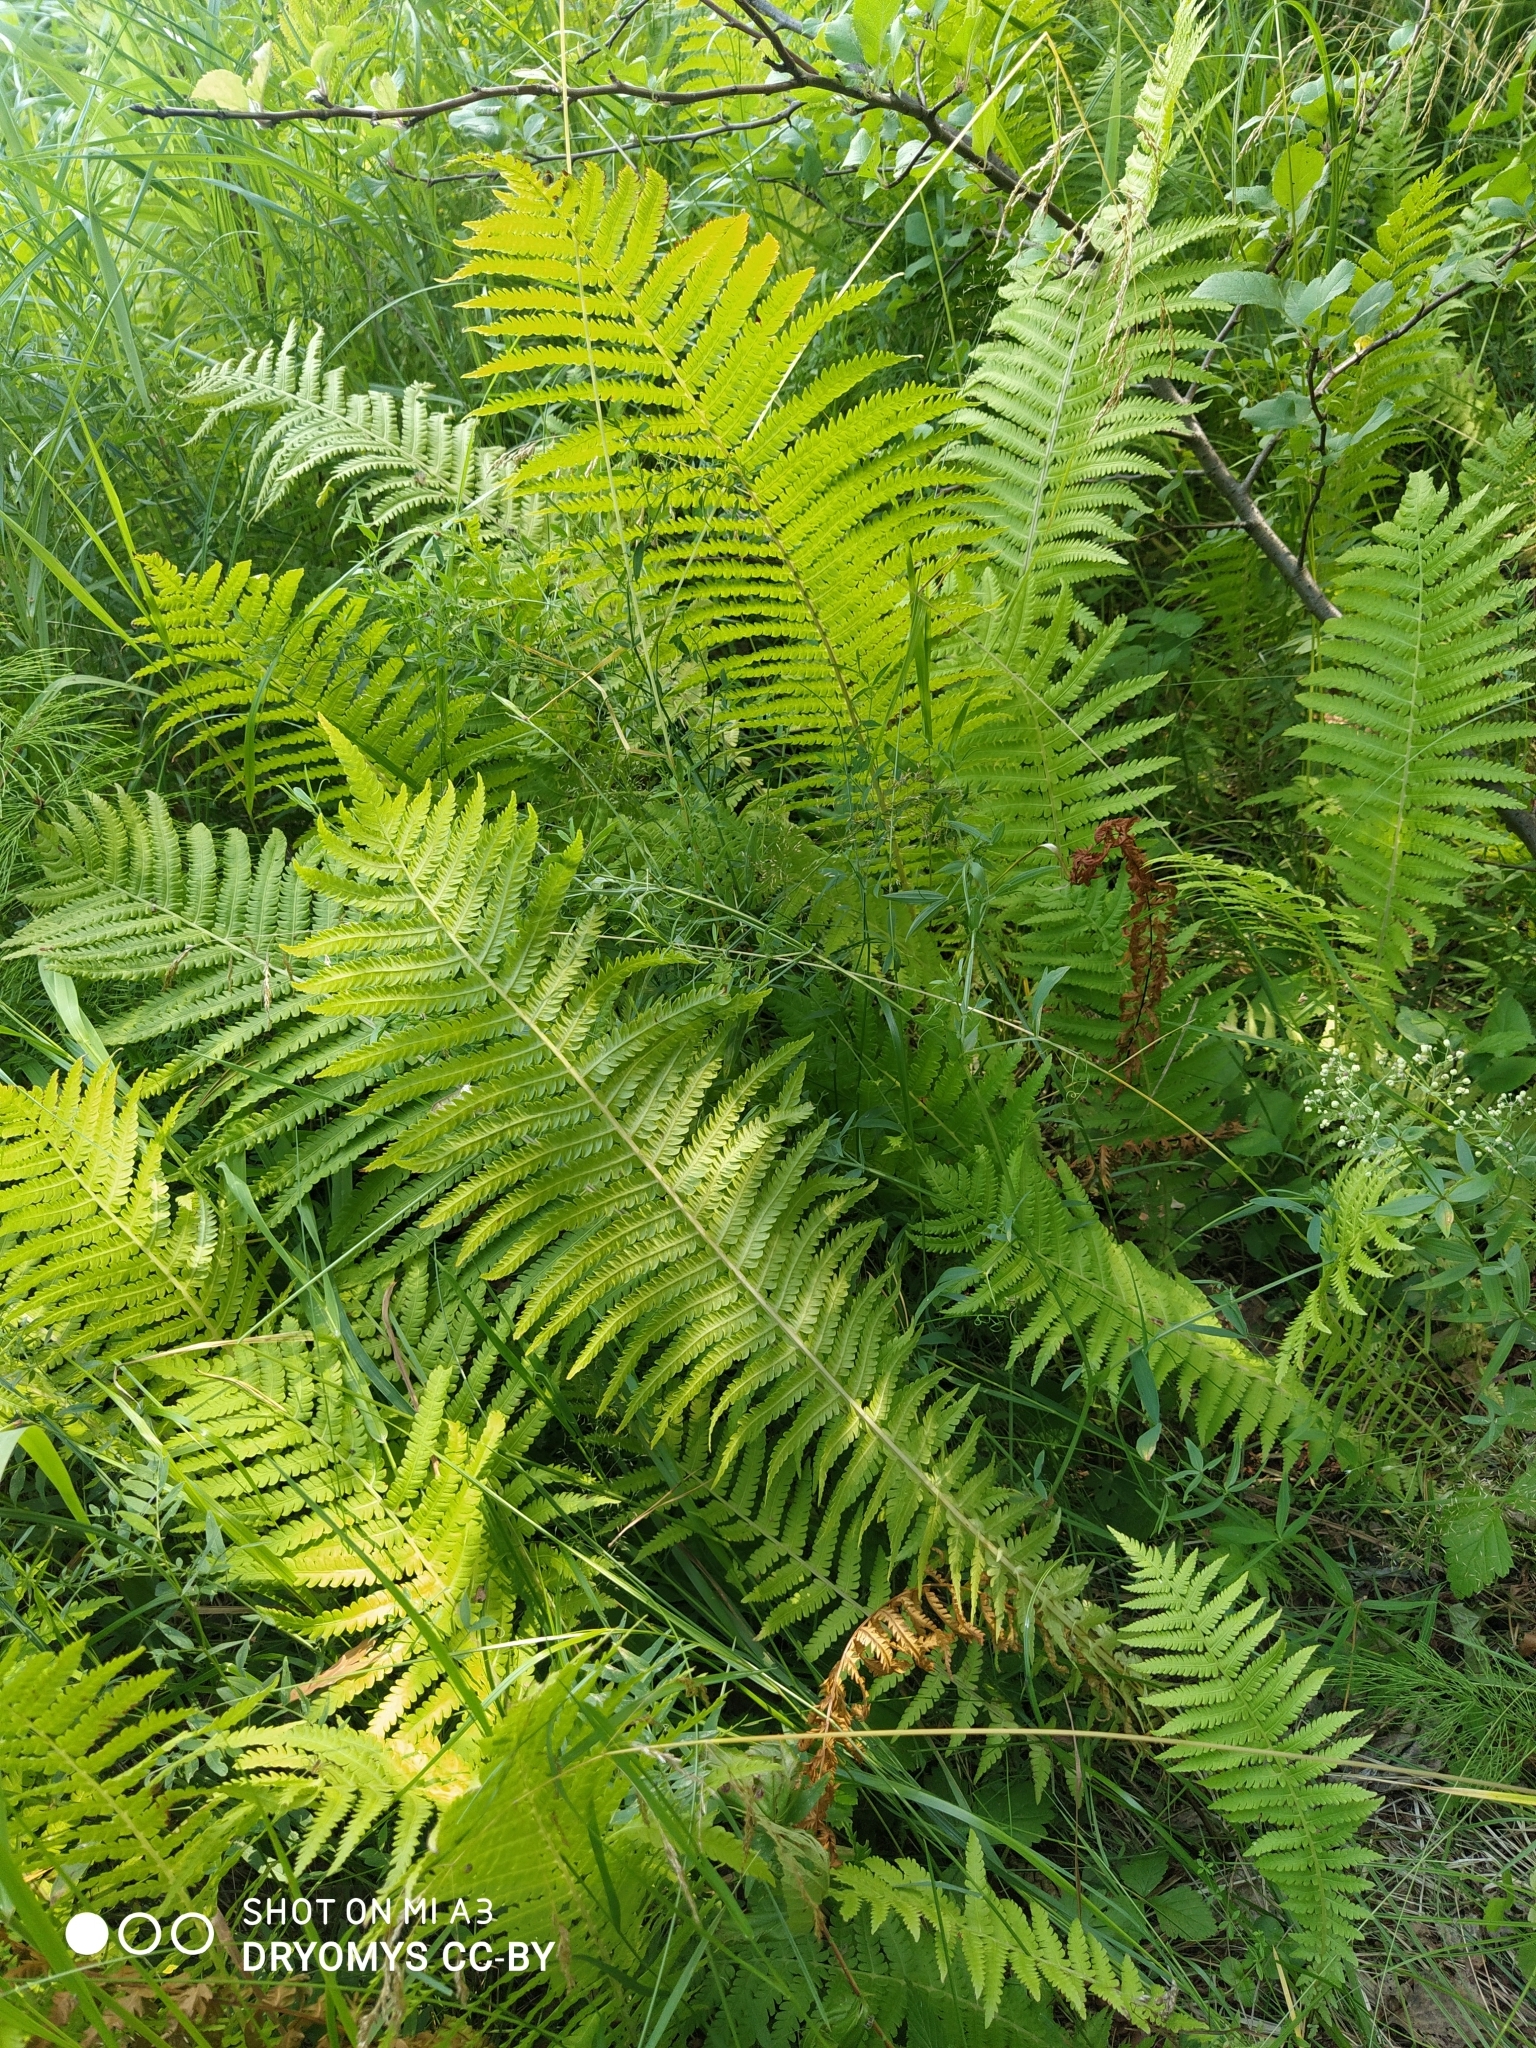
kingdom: Plantae
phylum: Tracheophyta
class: Polypodiopsida
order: Polypodiales
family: Onocleaceae
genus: Matteuccia
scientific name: Matteuccia struthiopteris
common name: Ostrich fern
